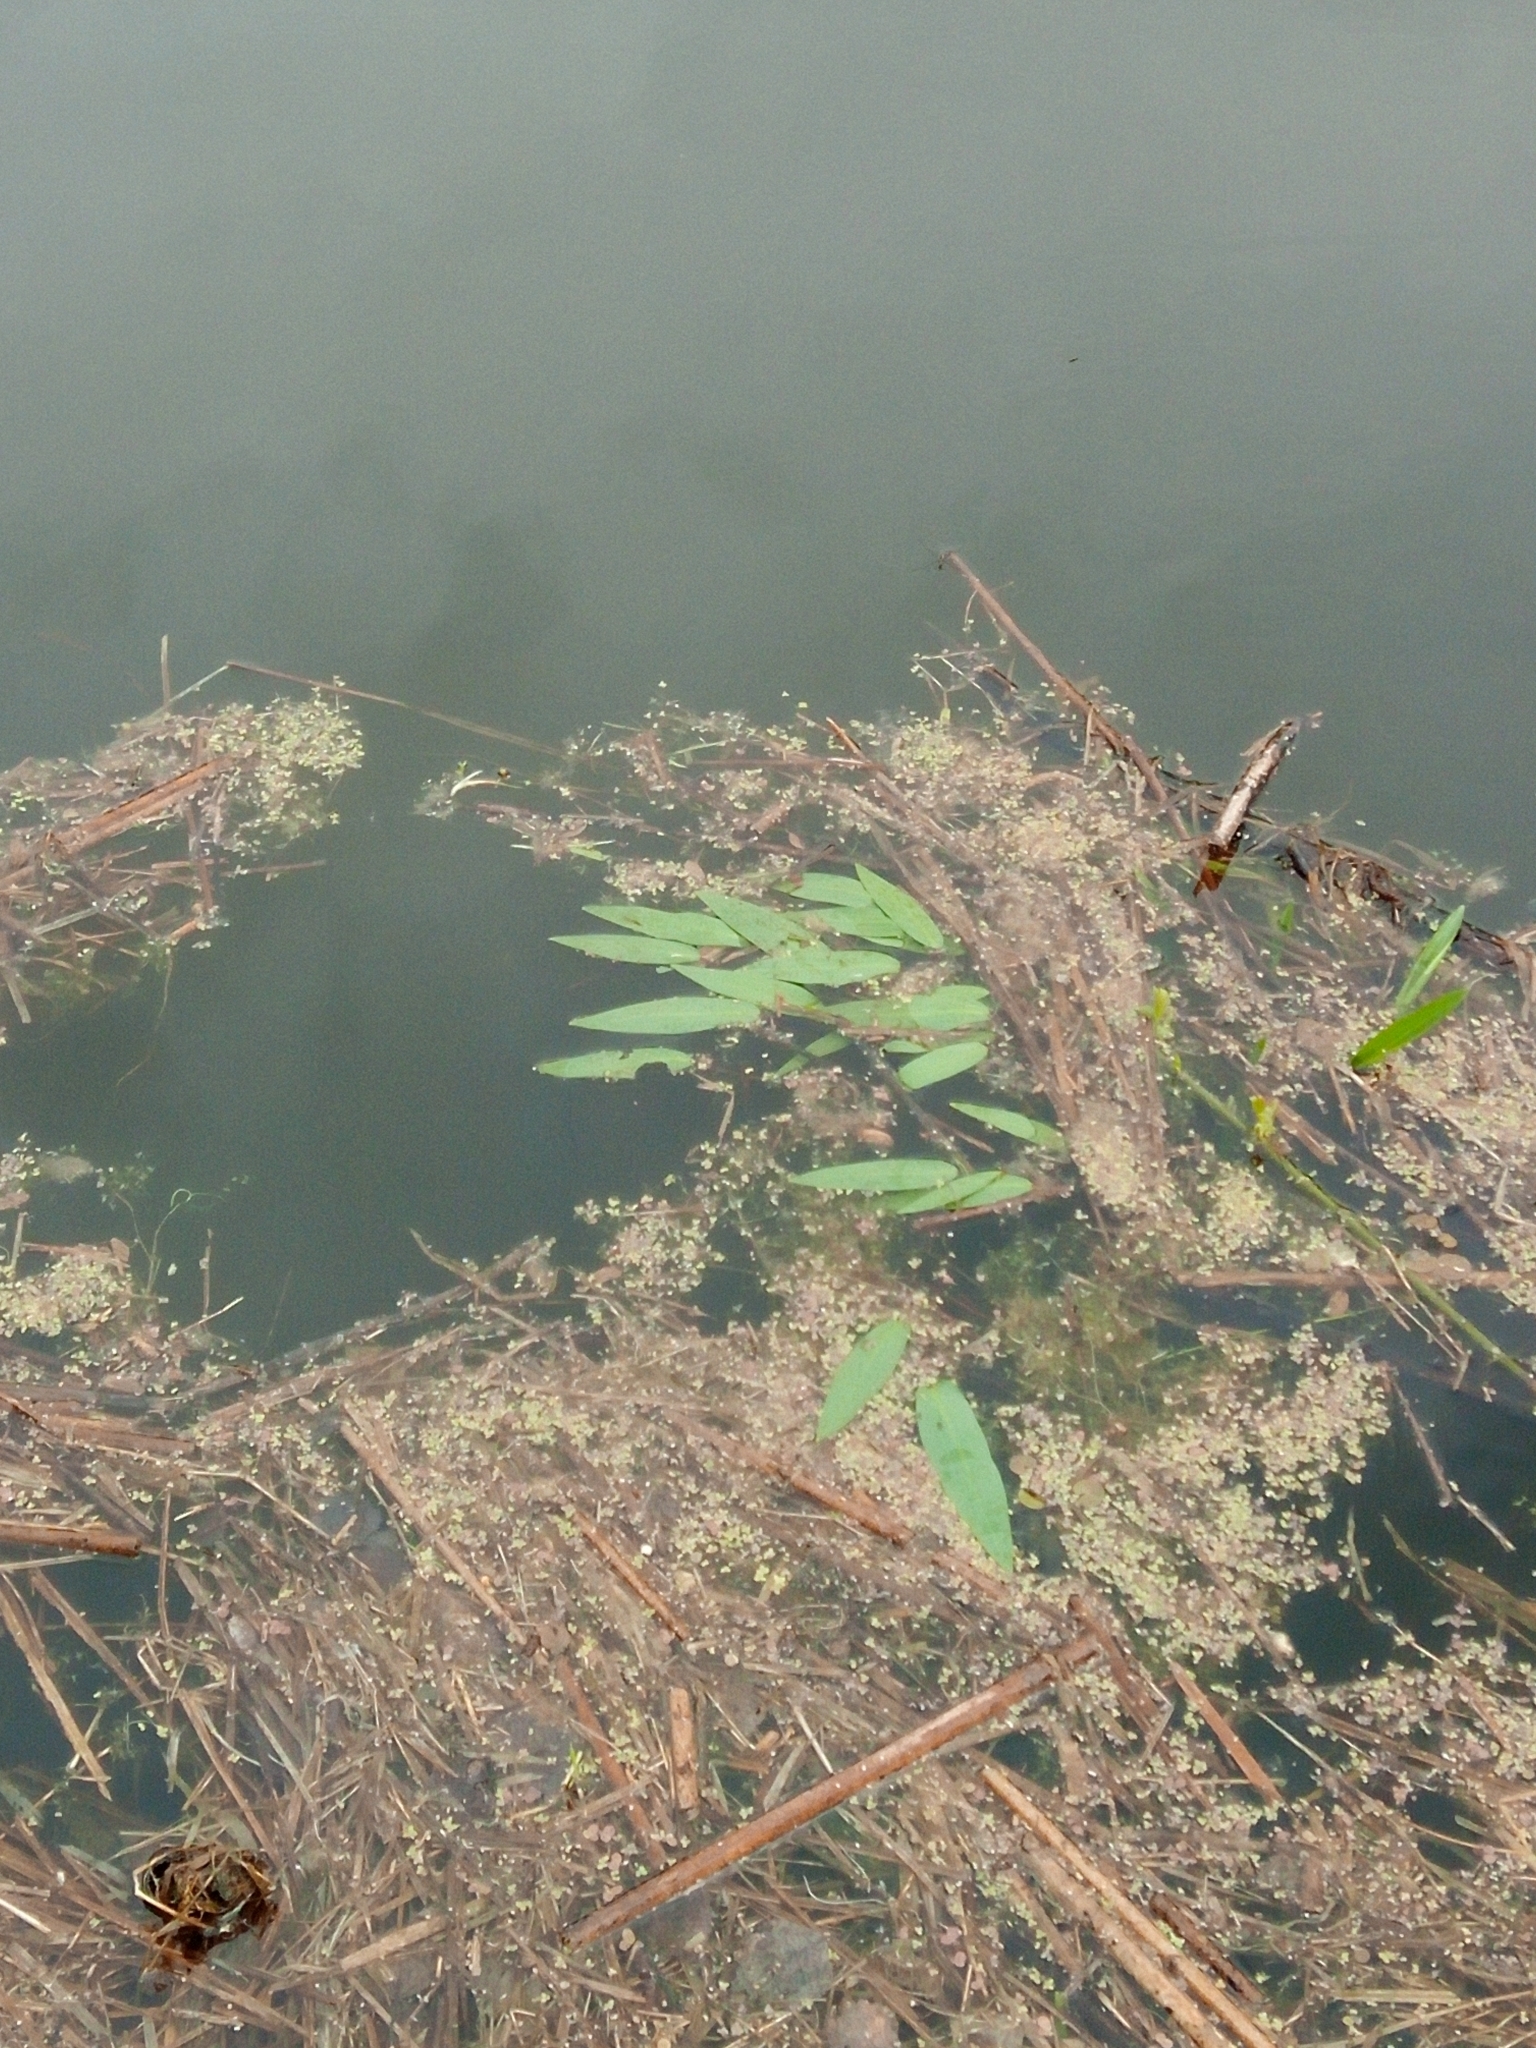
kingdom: Plantae
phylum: Tracheophyta
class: Magnoliopsida
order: Caryophyllales
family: Polygonaceae
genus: Persicaria
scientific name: Persicaria amphibia
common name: Amphibious bistort
